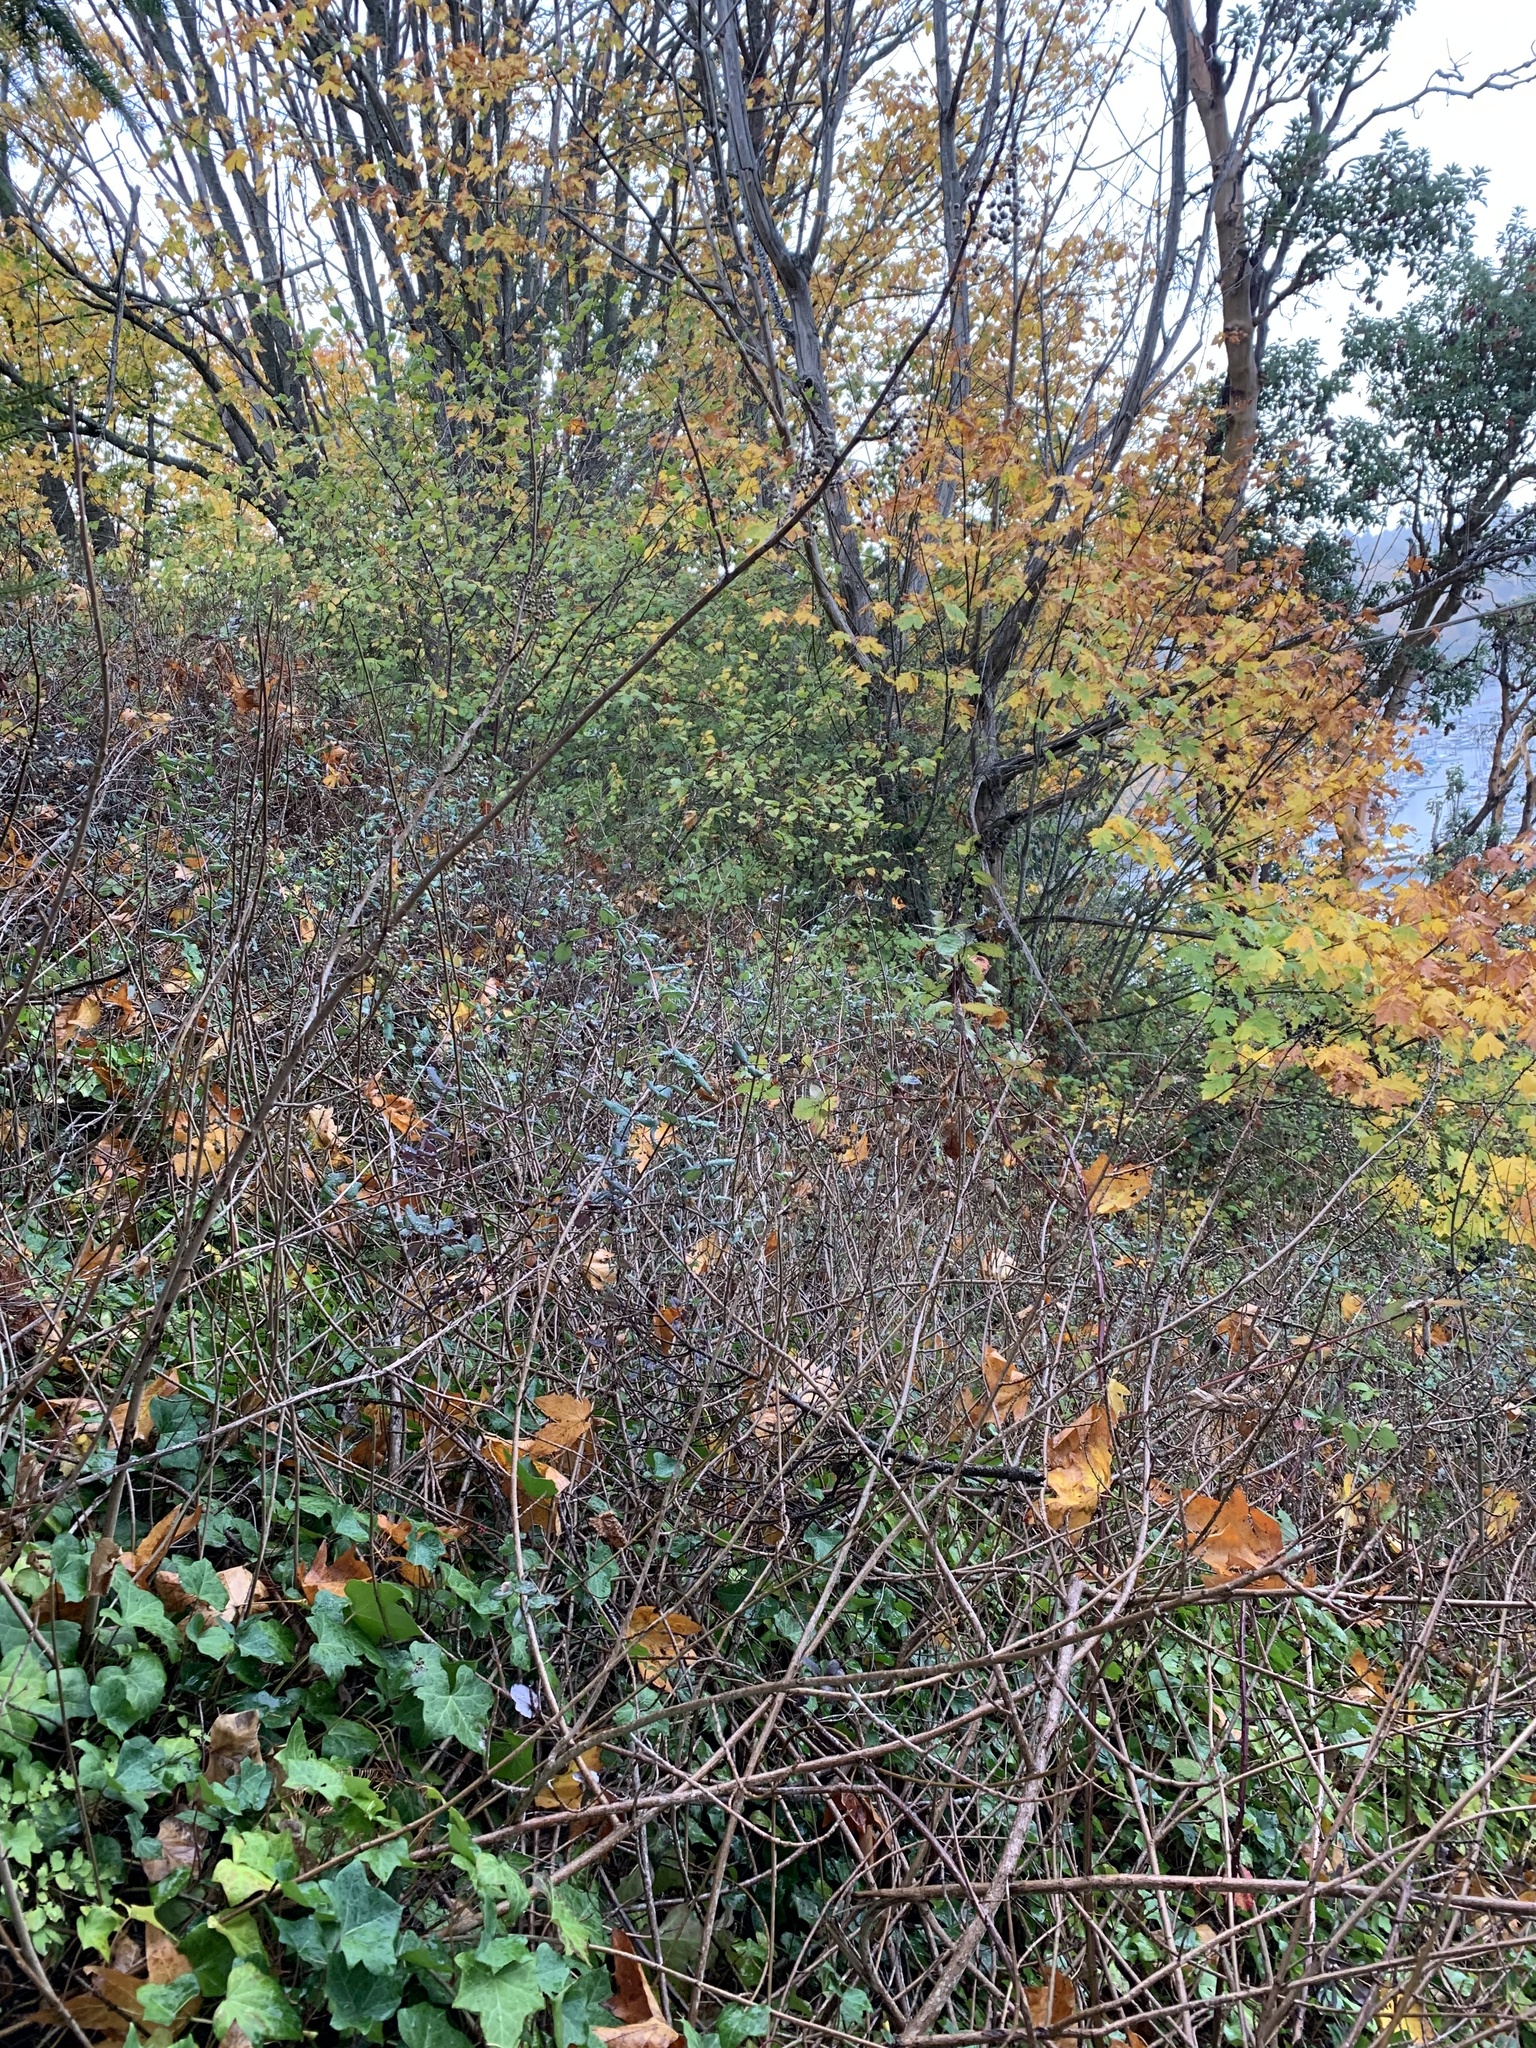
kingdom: Plantae
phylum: Tracheophyta
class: Magnoliopsida
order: Sapindales
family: Anacardiaceae
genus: Toxicodendron
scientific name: Toxicodendron diversilobum
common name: Pacific poison-oak
